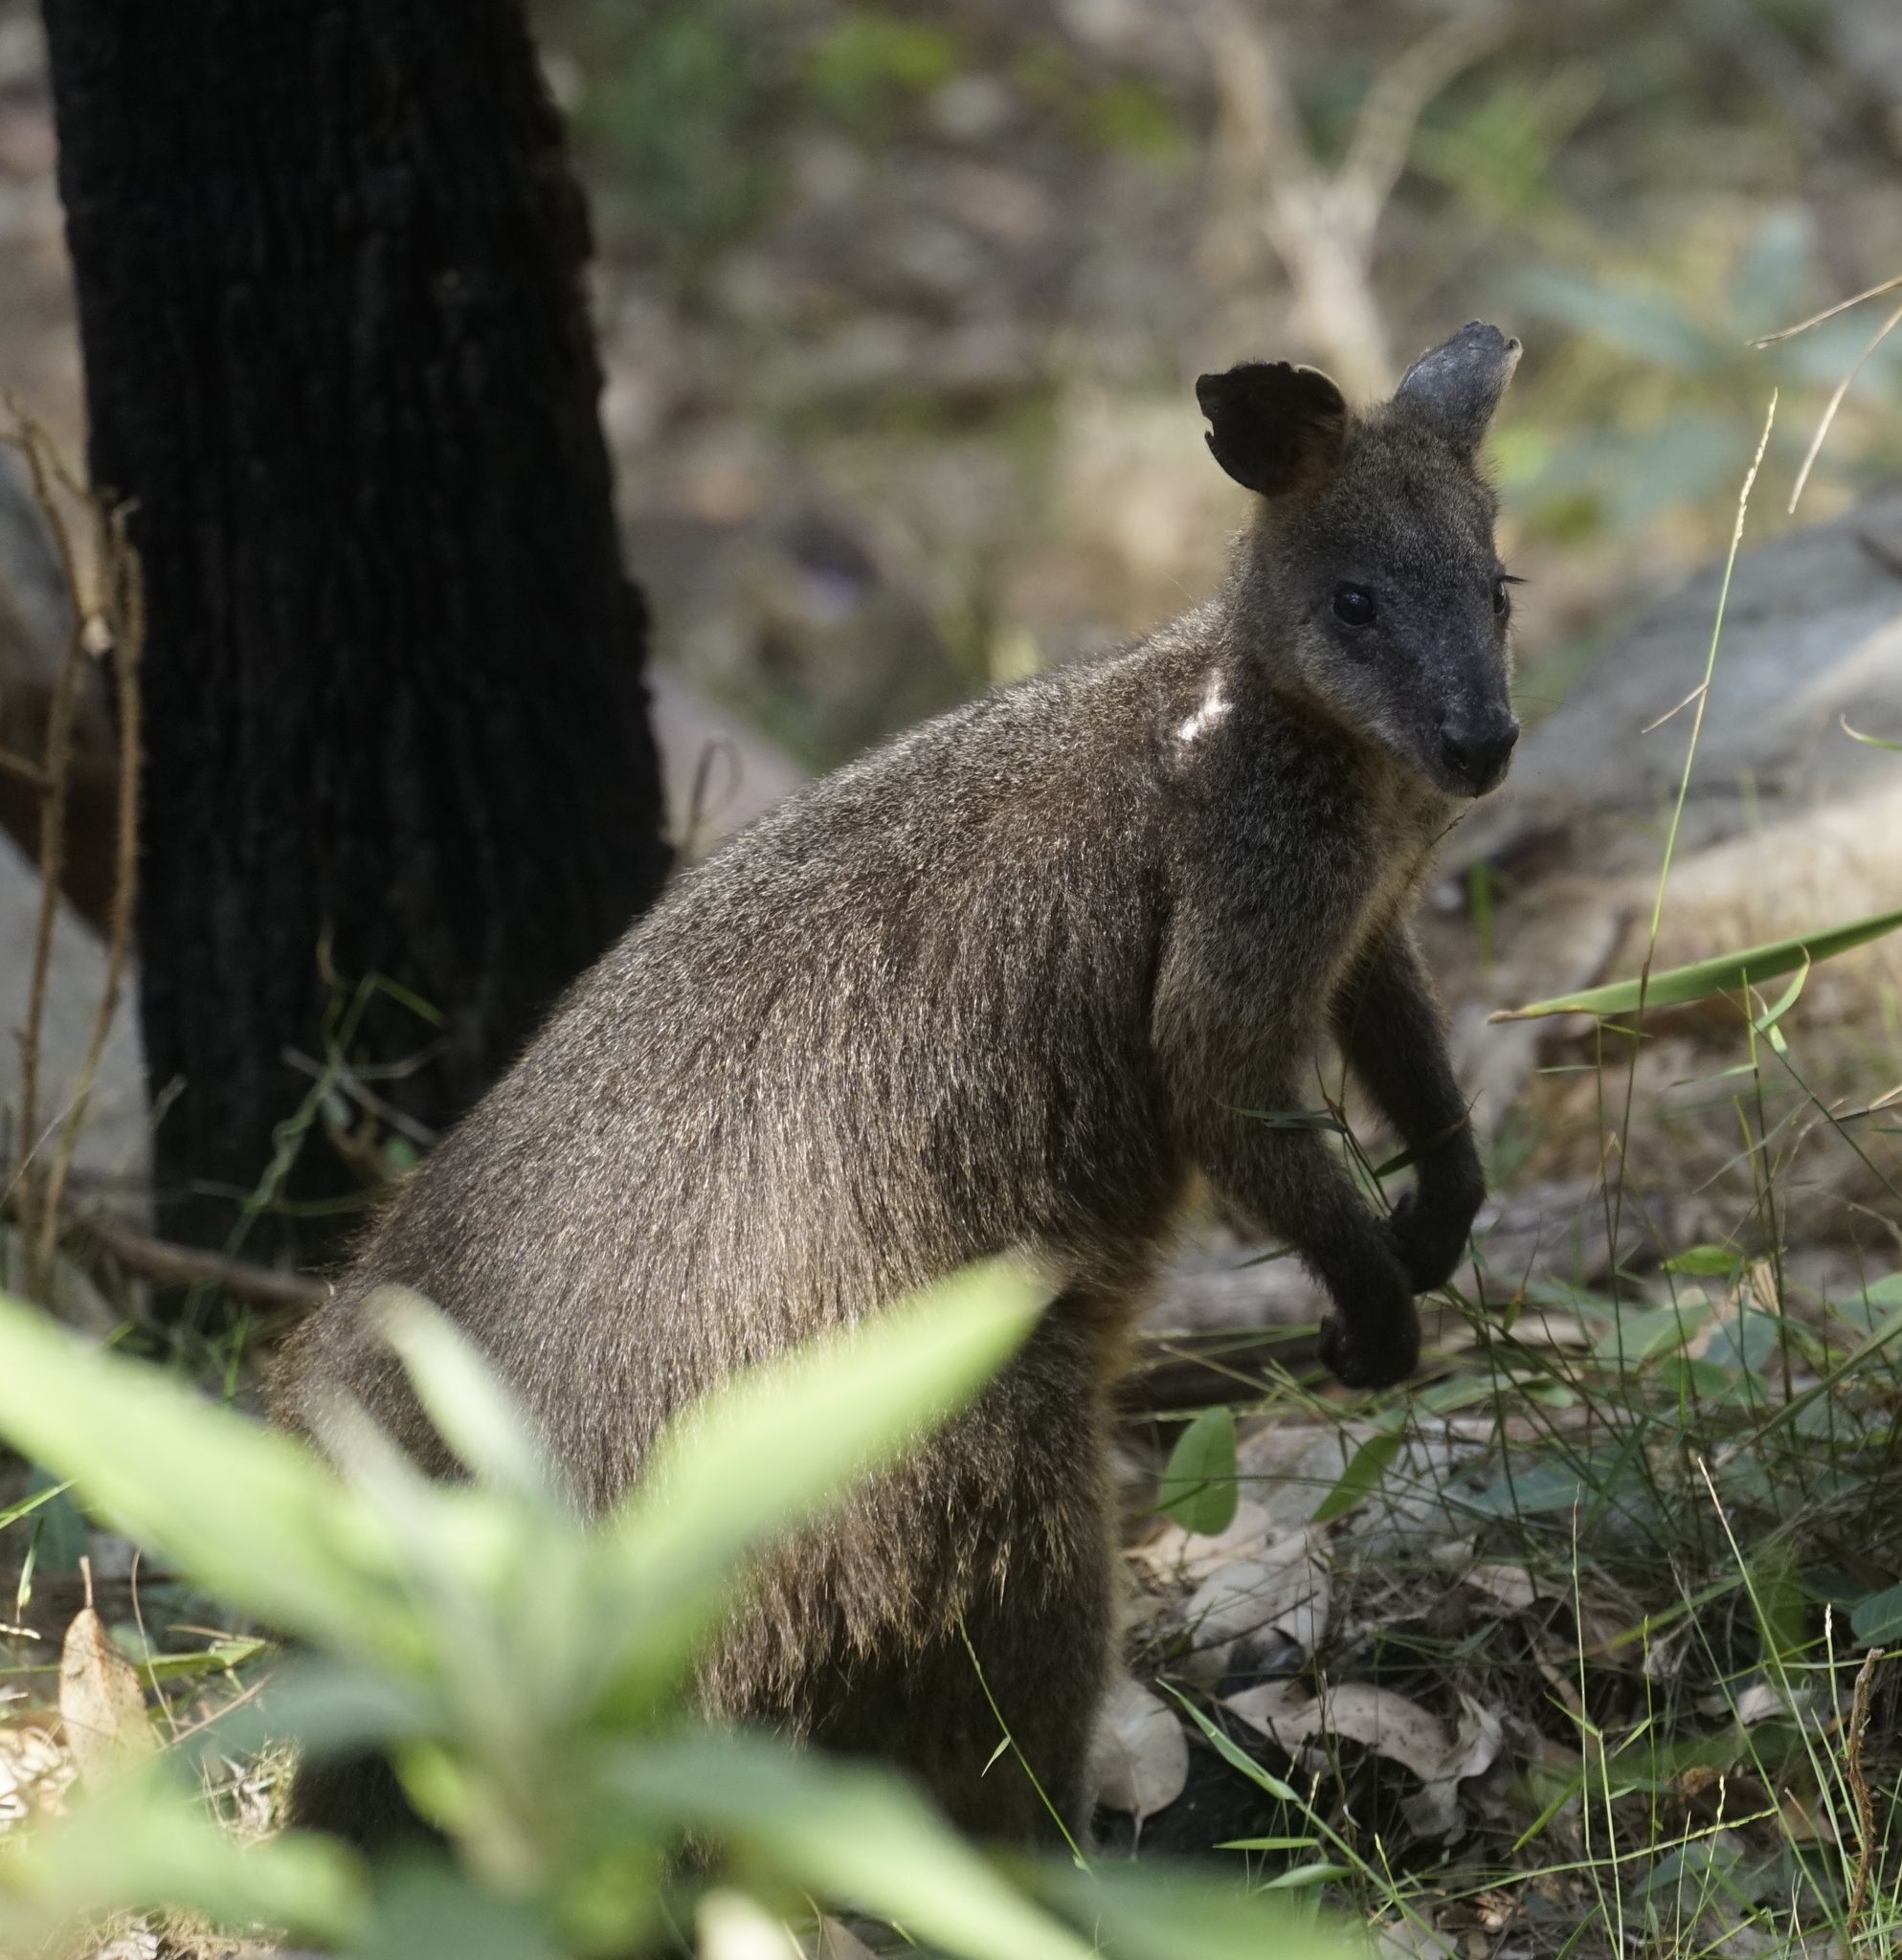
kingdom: Animalia
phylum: Chordata
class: Mammalia
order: Diprotodontia
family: Macropodidae
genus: Wallabia
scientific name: Wallabia bicolor
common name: Swamp wallaby
